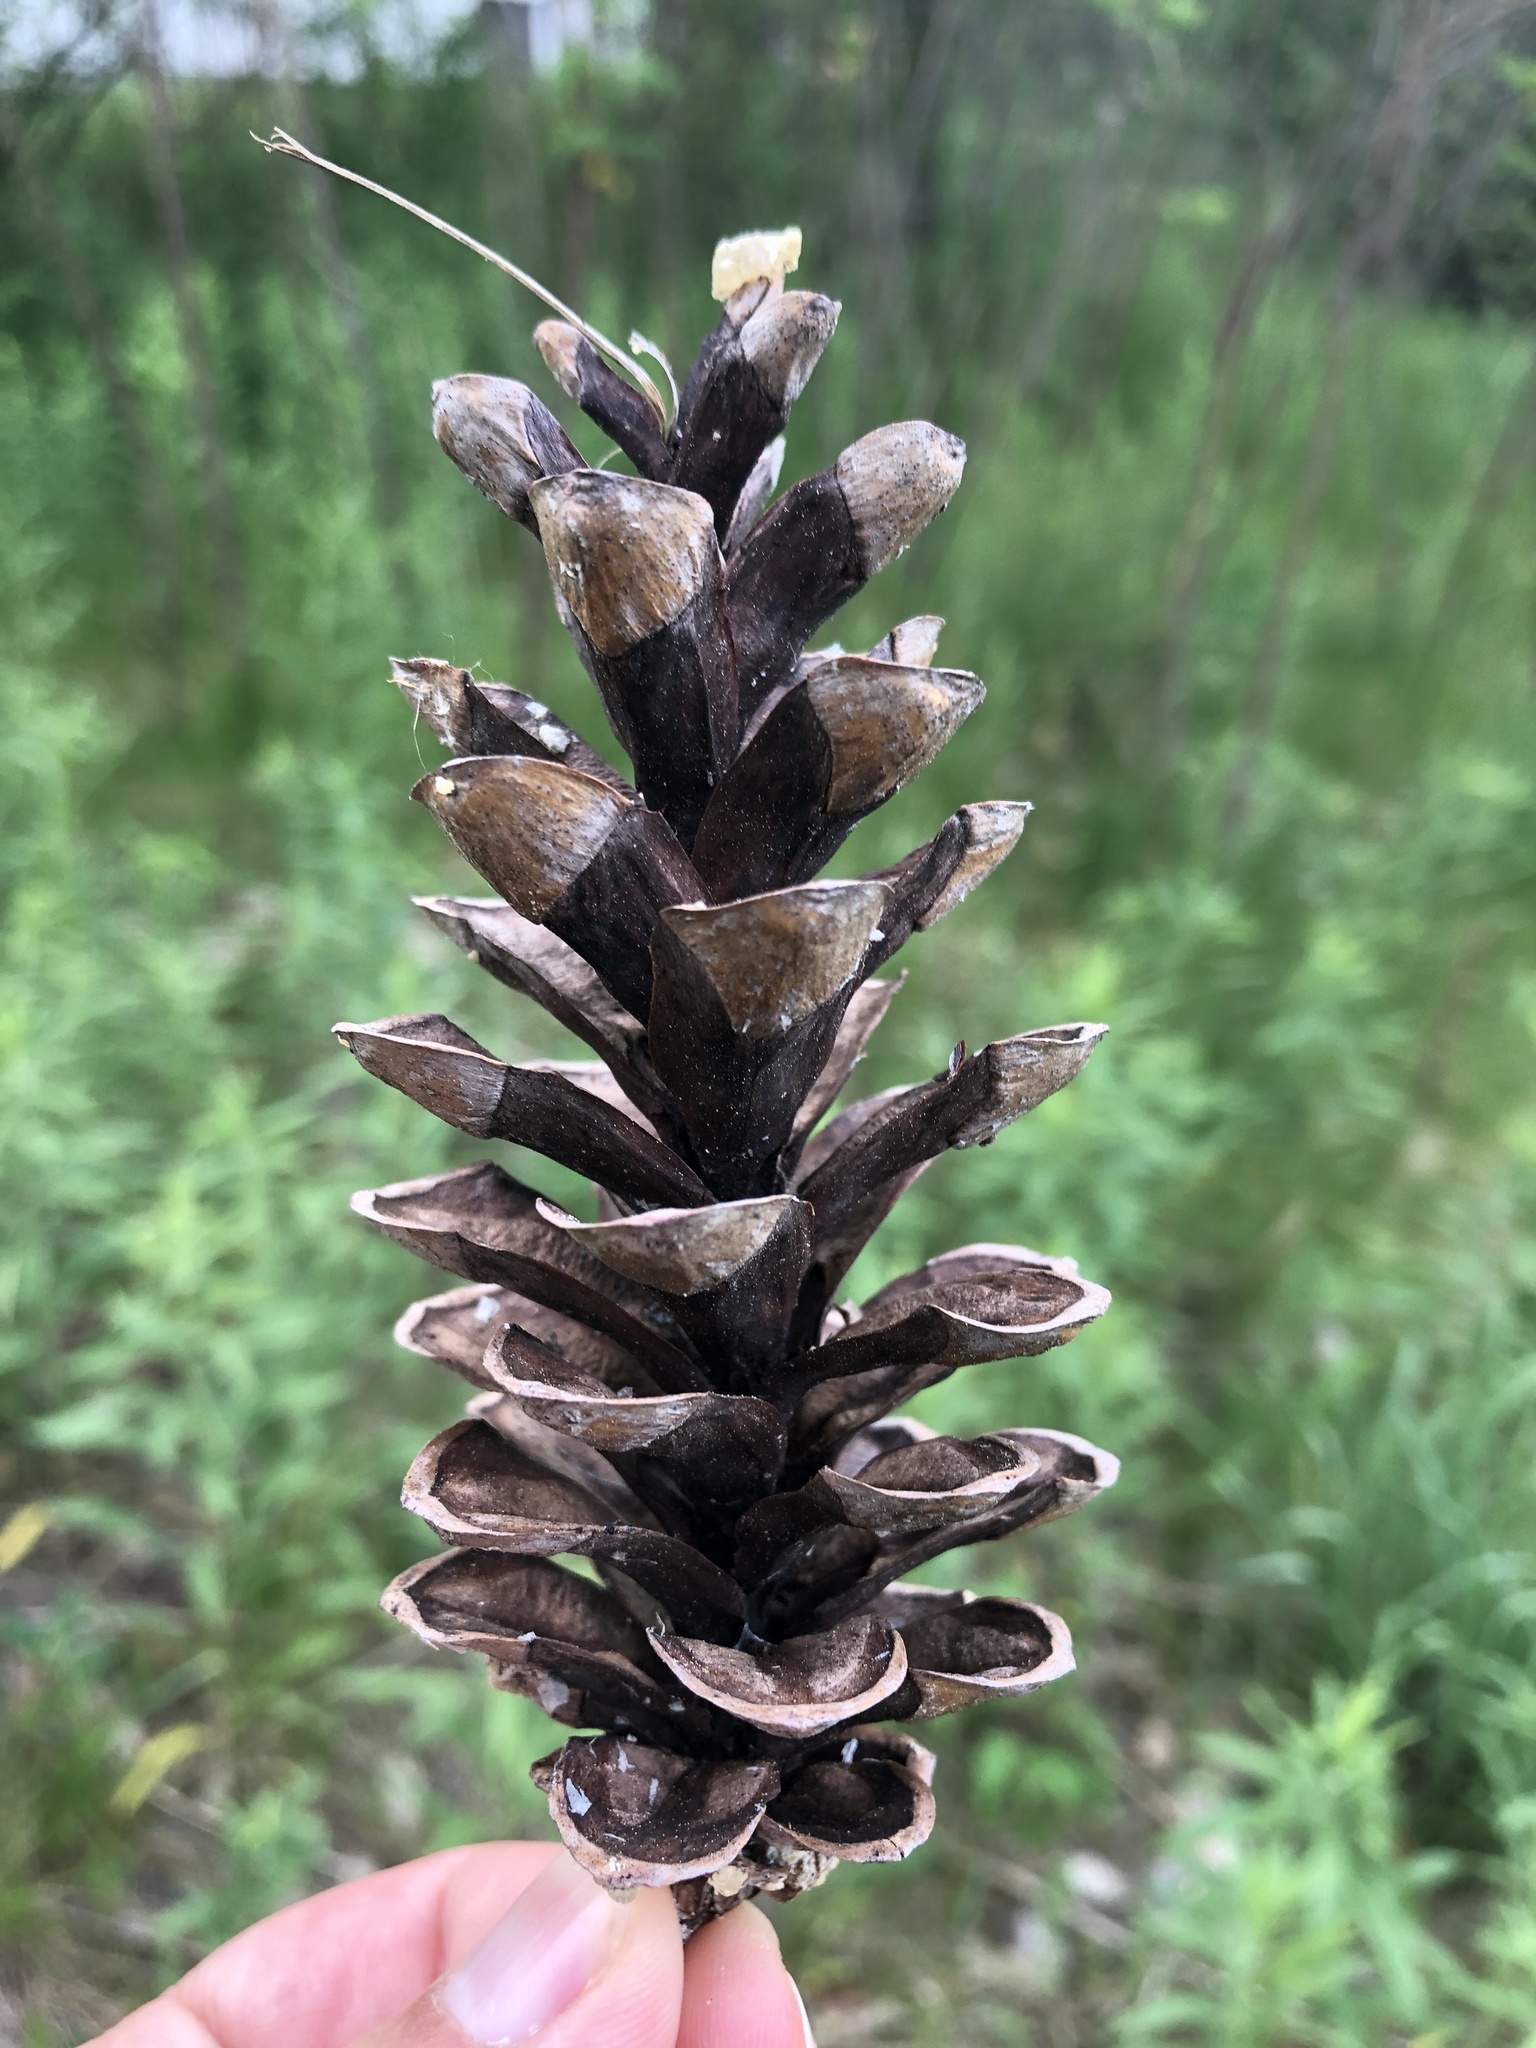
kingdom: Plantae
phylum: Tracheophyta
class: Pinopsida
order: Pinales
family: Pinaceae
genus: Pinus
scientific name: Pinus strobus
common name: Weymouth pine
